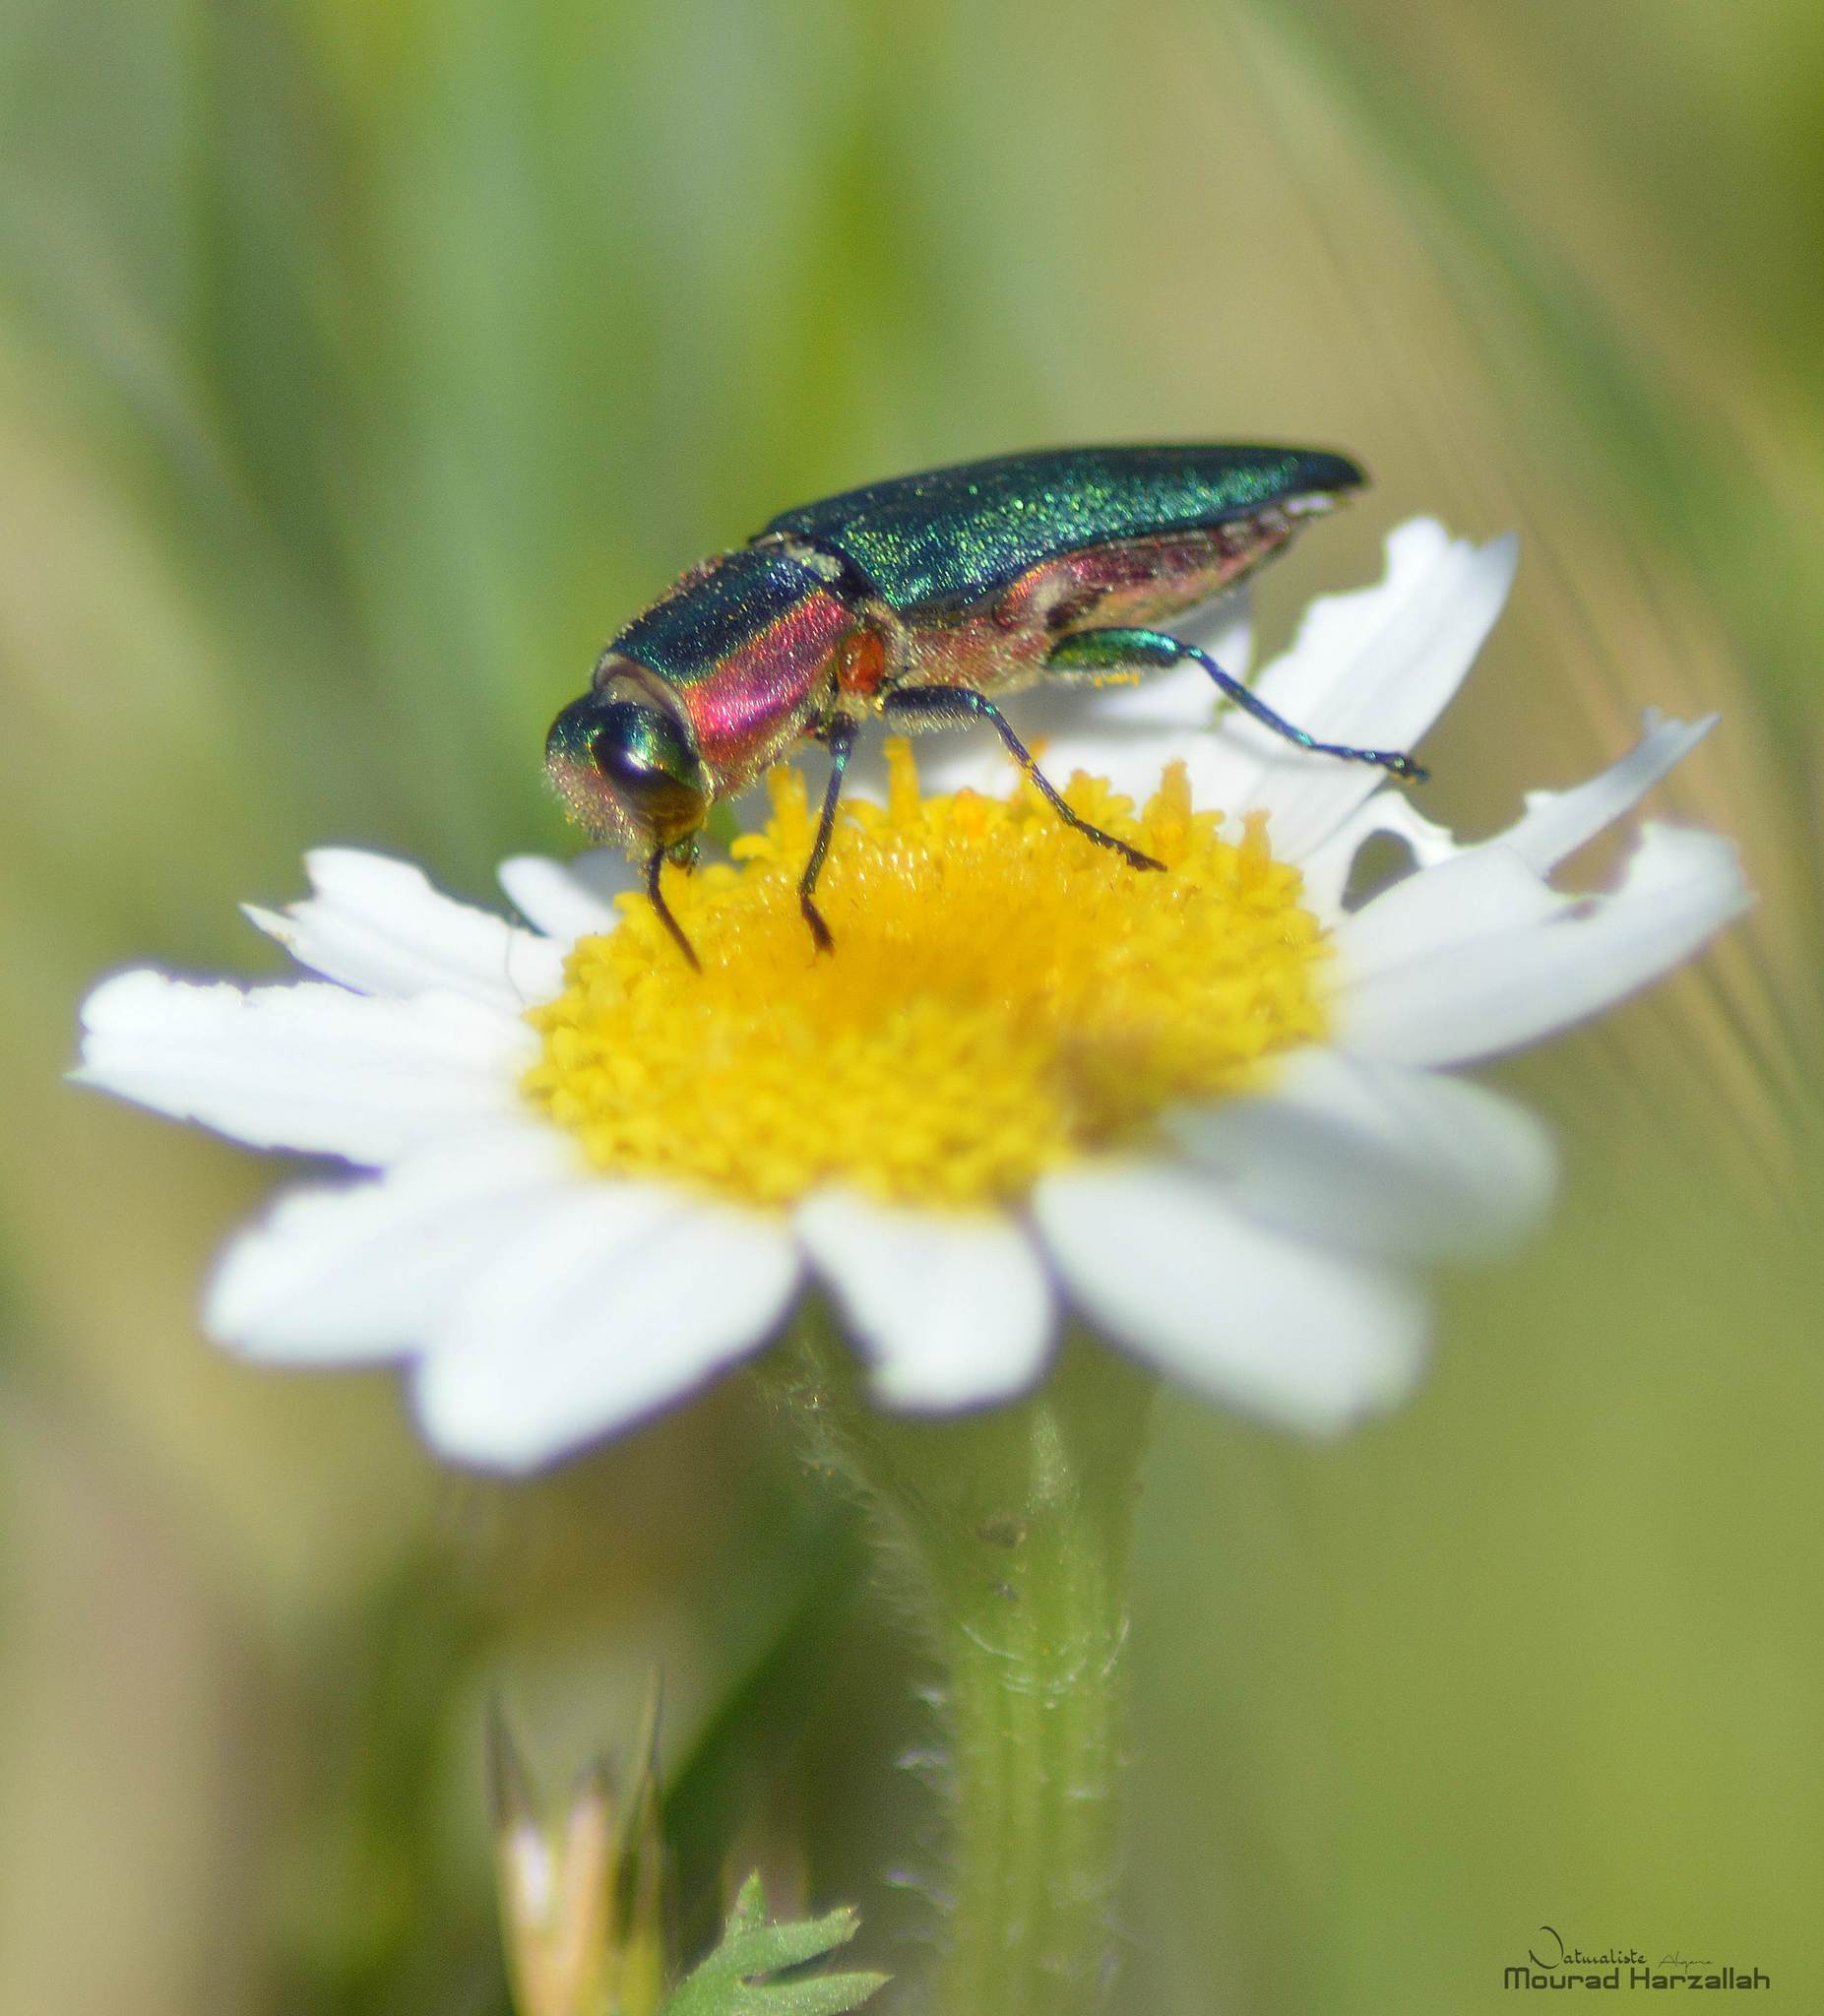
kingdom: Animalia
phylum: Arthropoda
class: Insecta
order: Coleoptera
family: Buprestidae
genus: Anthaxia
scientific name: Anthaxia hungarica
